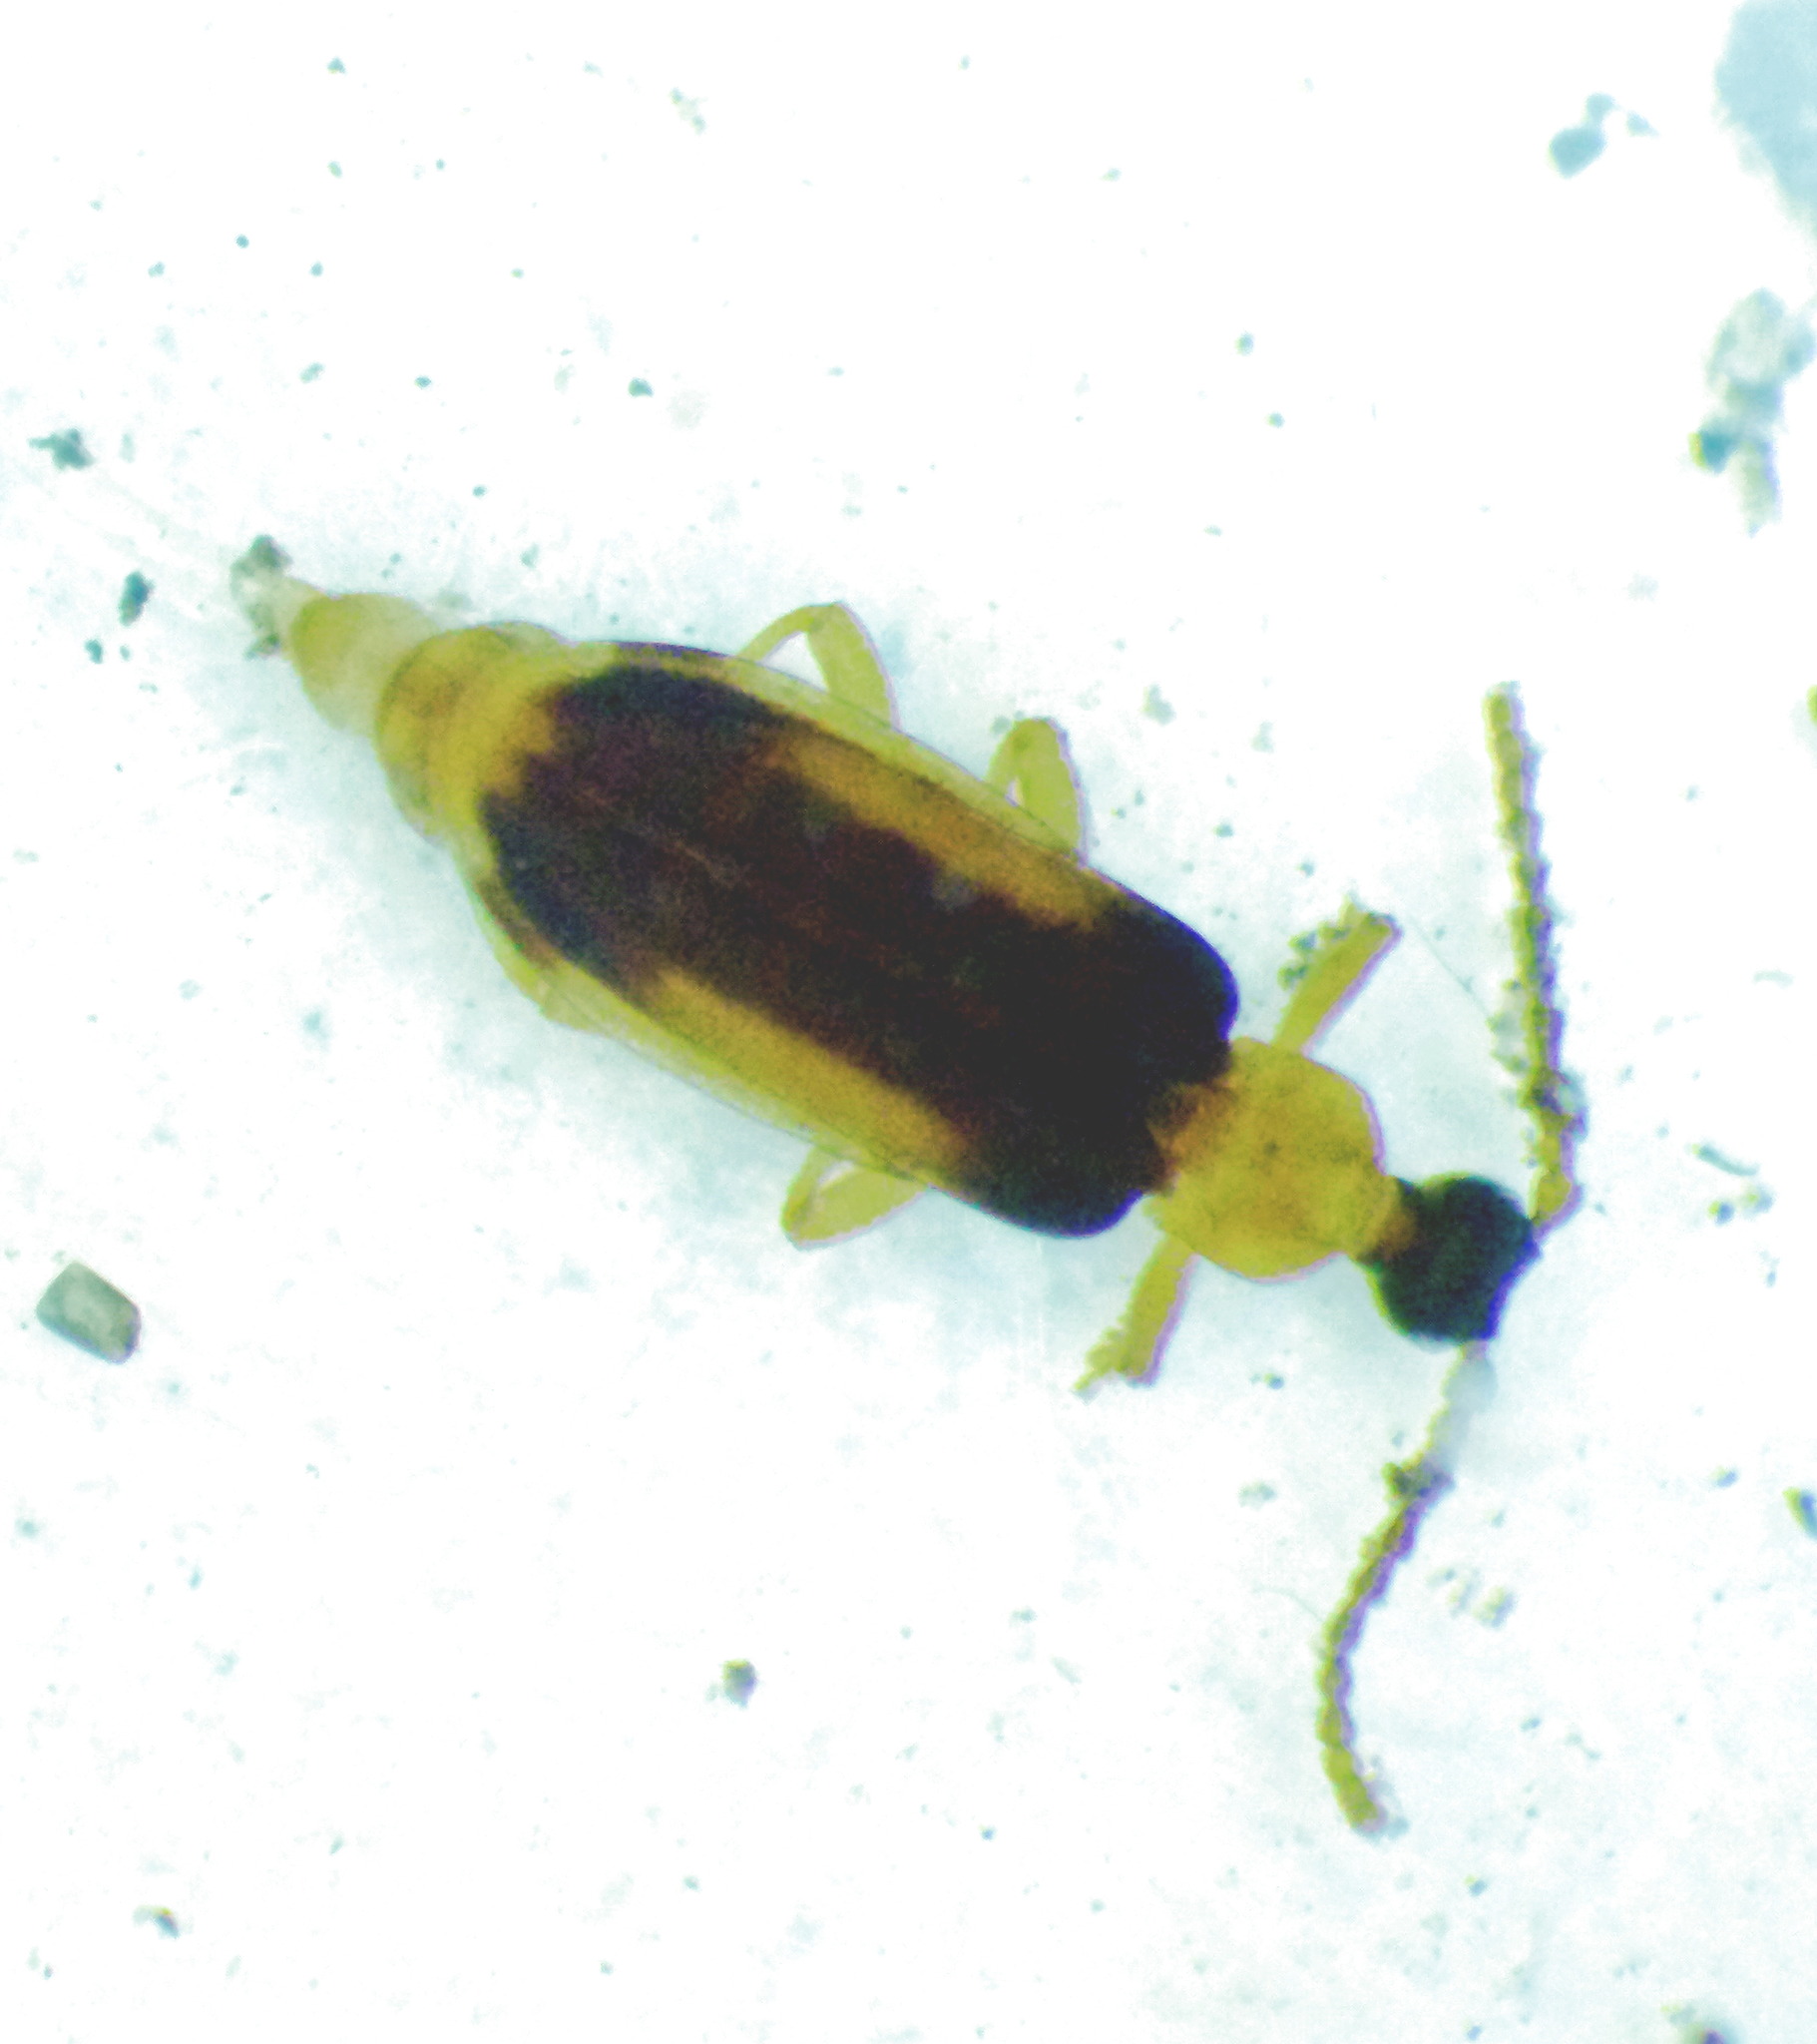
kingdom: Animalia
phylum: Arthropoda
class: Insecta
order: Coleoptera
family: Anthicidae
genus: Ischalia
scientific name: Ischalia costata
